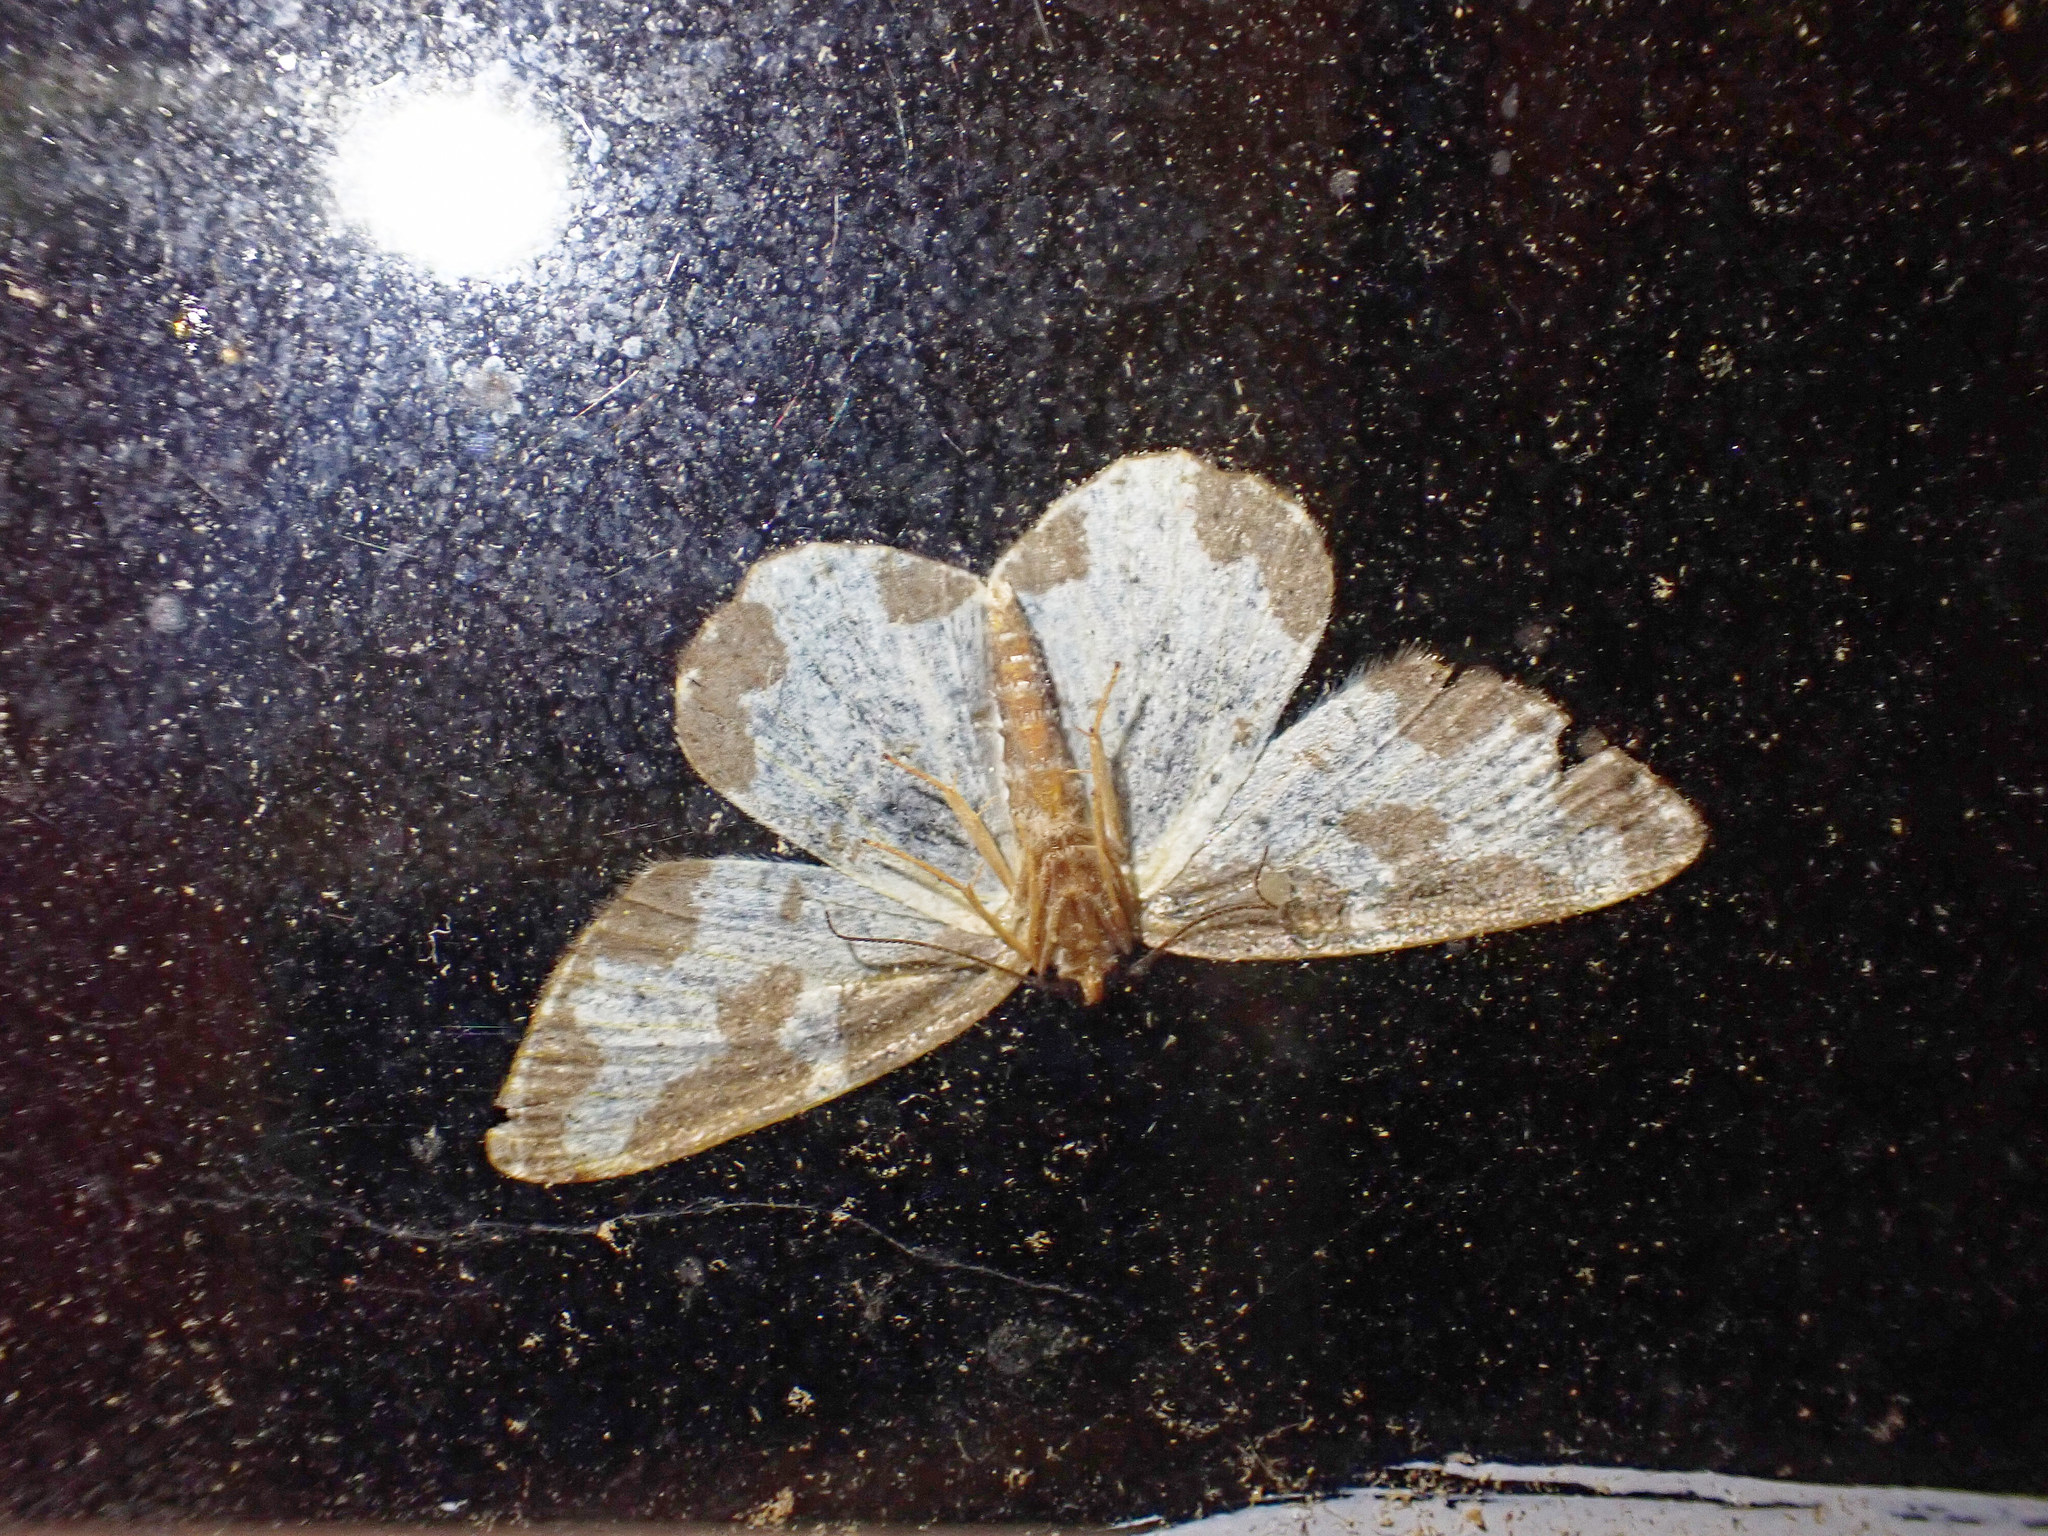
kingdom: Animalia
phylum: Arthropoda
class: Insecta
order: Lepidoptera
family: Geometridae
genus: Lomaspilis
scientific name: Lomaspilis marginata
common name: Clouded border
